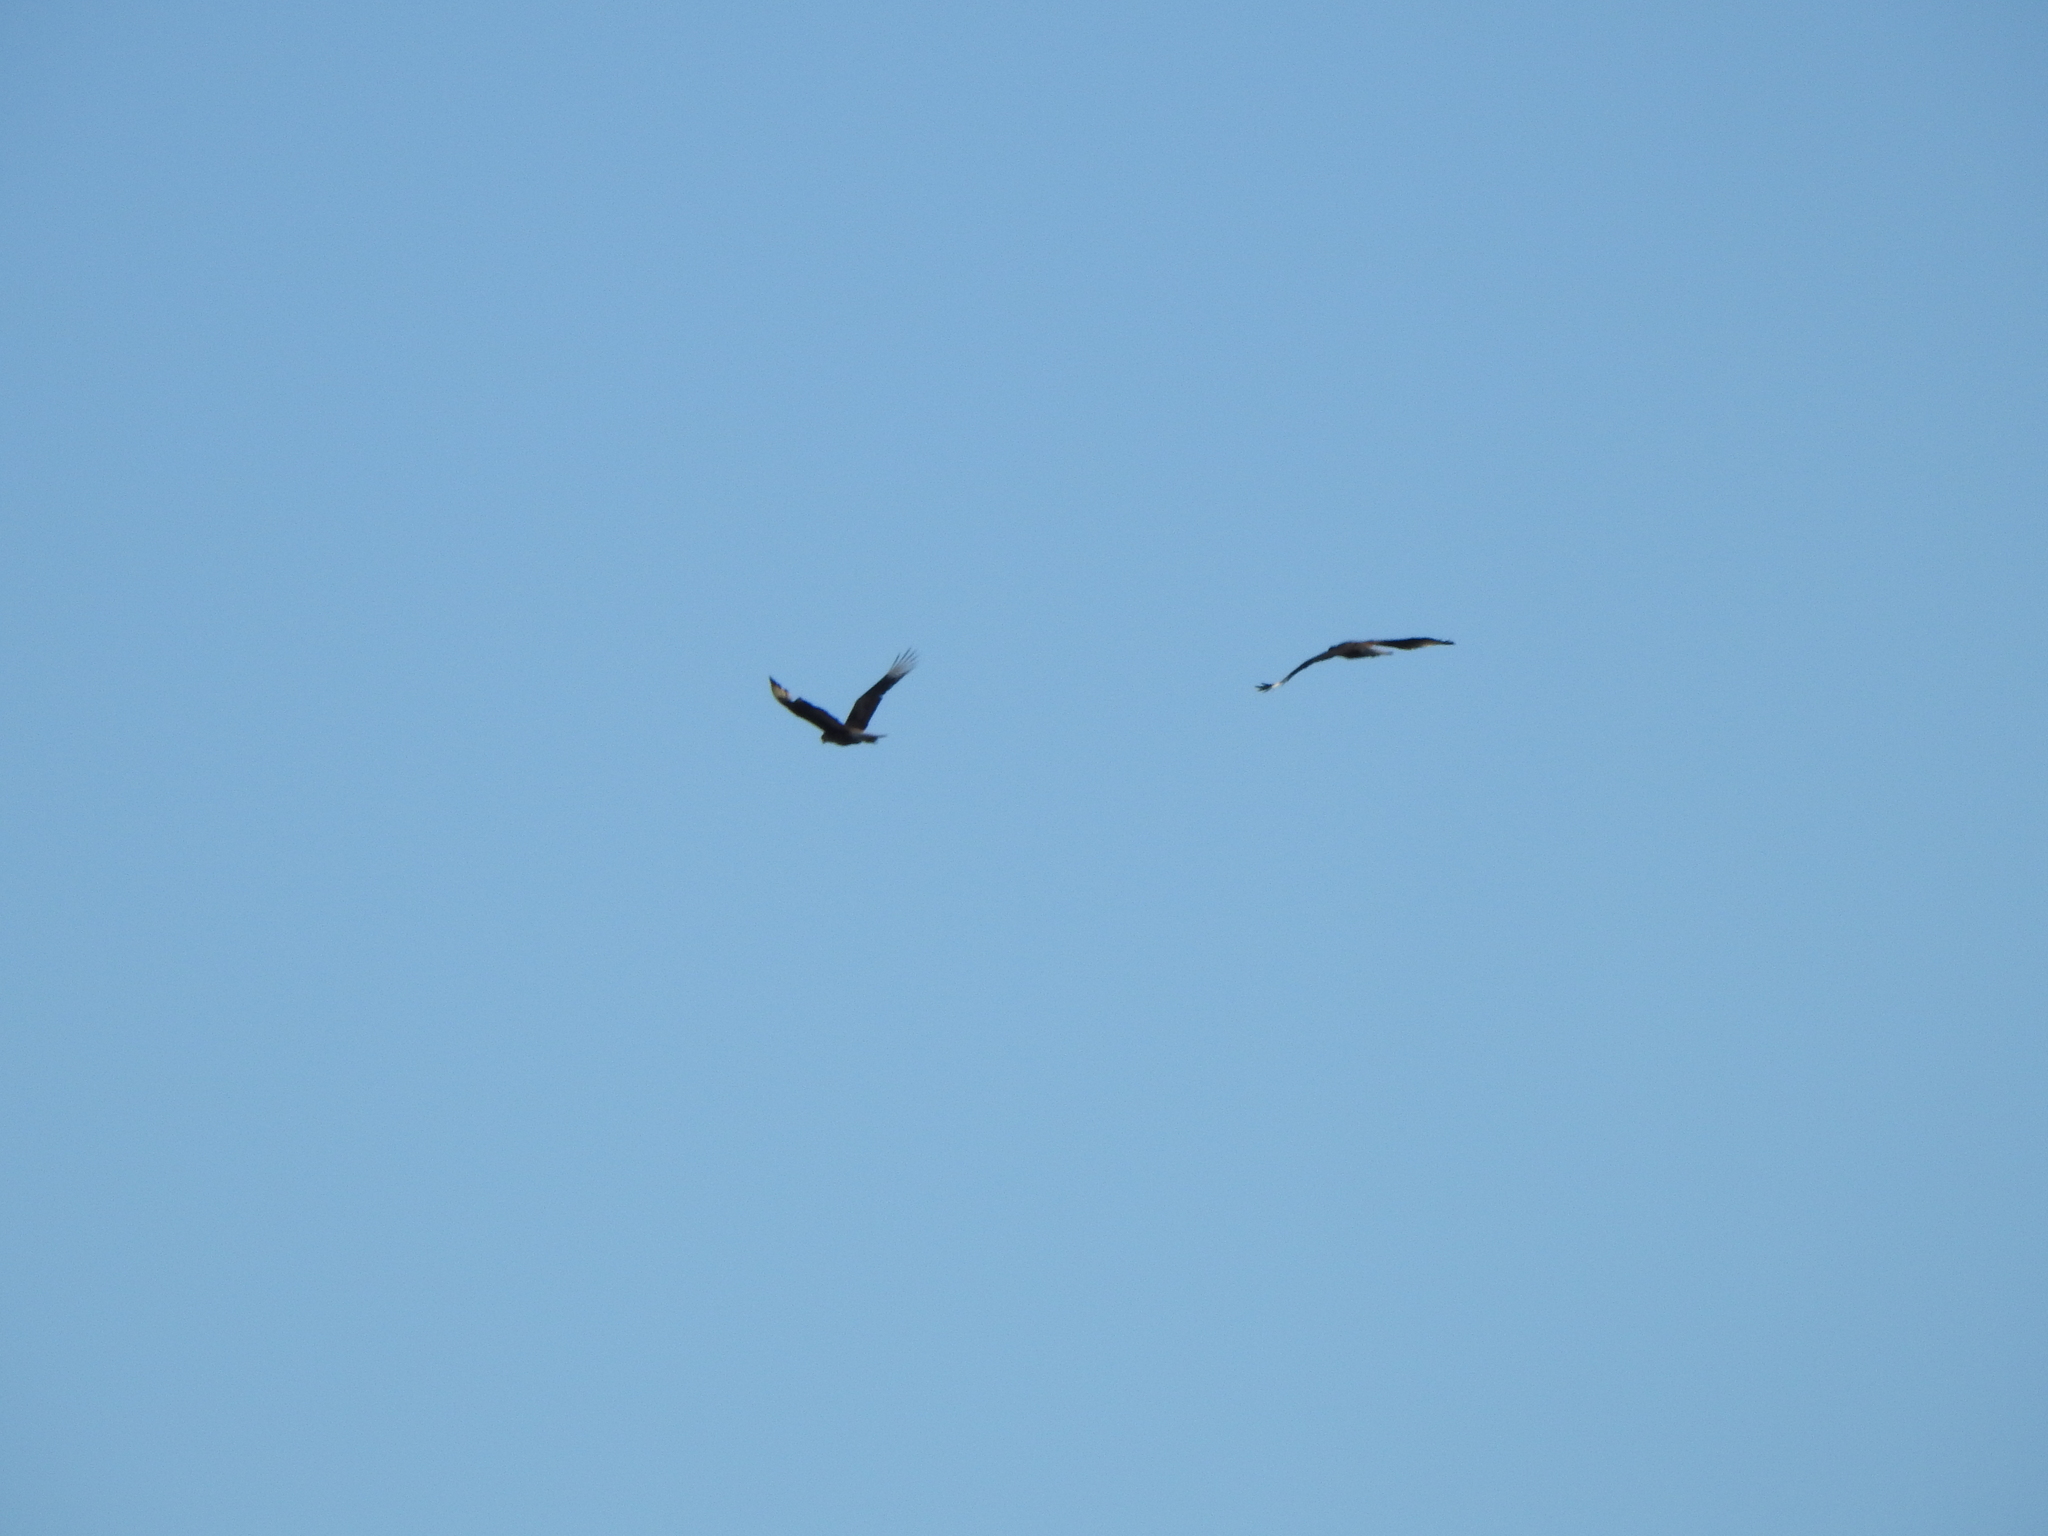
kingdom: Animalia
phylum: Chordata
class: Aves
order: Falconiformes
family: Falconidae
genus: Caracara
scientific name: Caracara plancus
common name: Southern caracara
